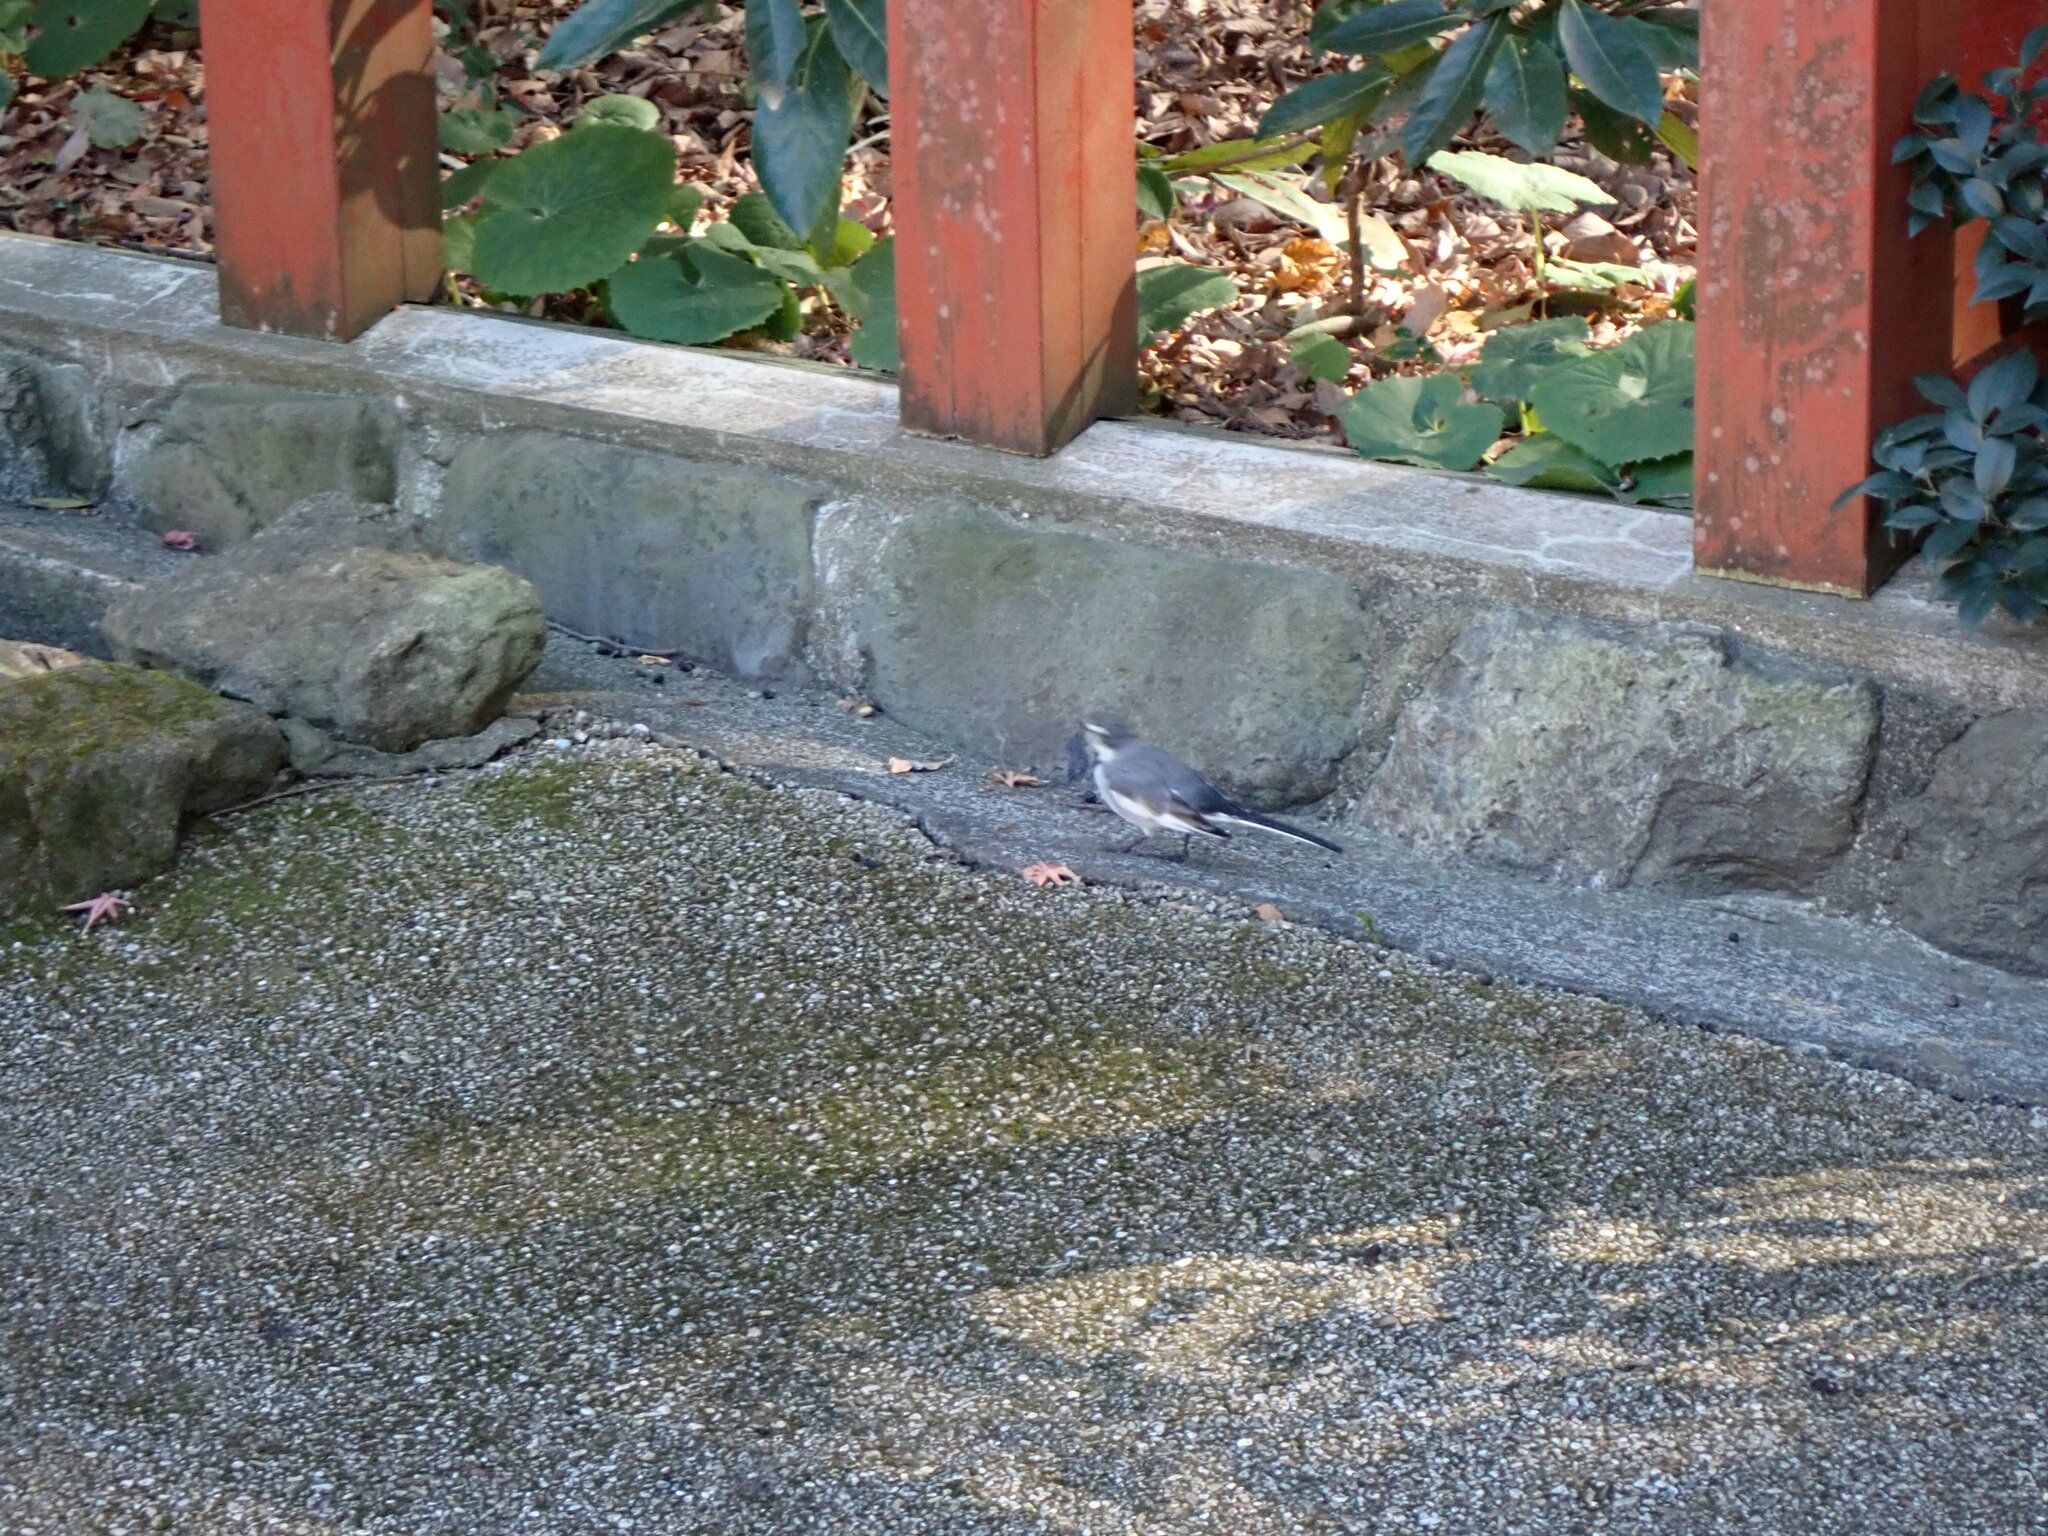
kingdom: Animalia
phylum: Chordata
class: Aves
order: Passeriformes
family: Motacillidae
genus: Motacilla
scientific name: Motacilla alba
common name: White wagtail
